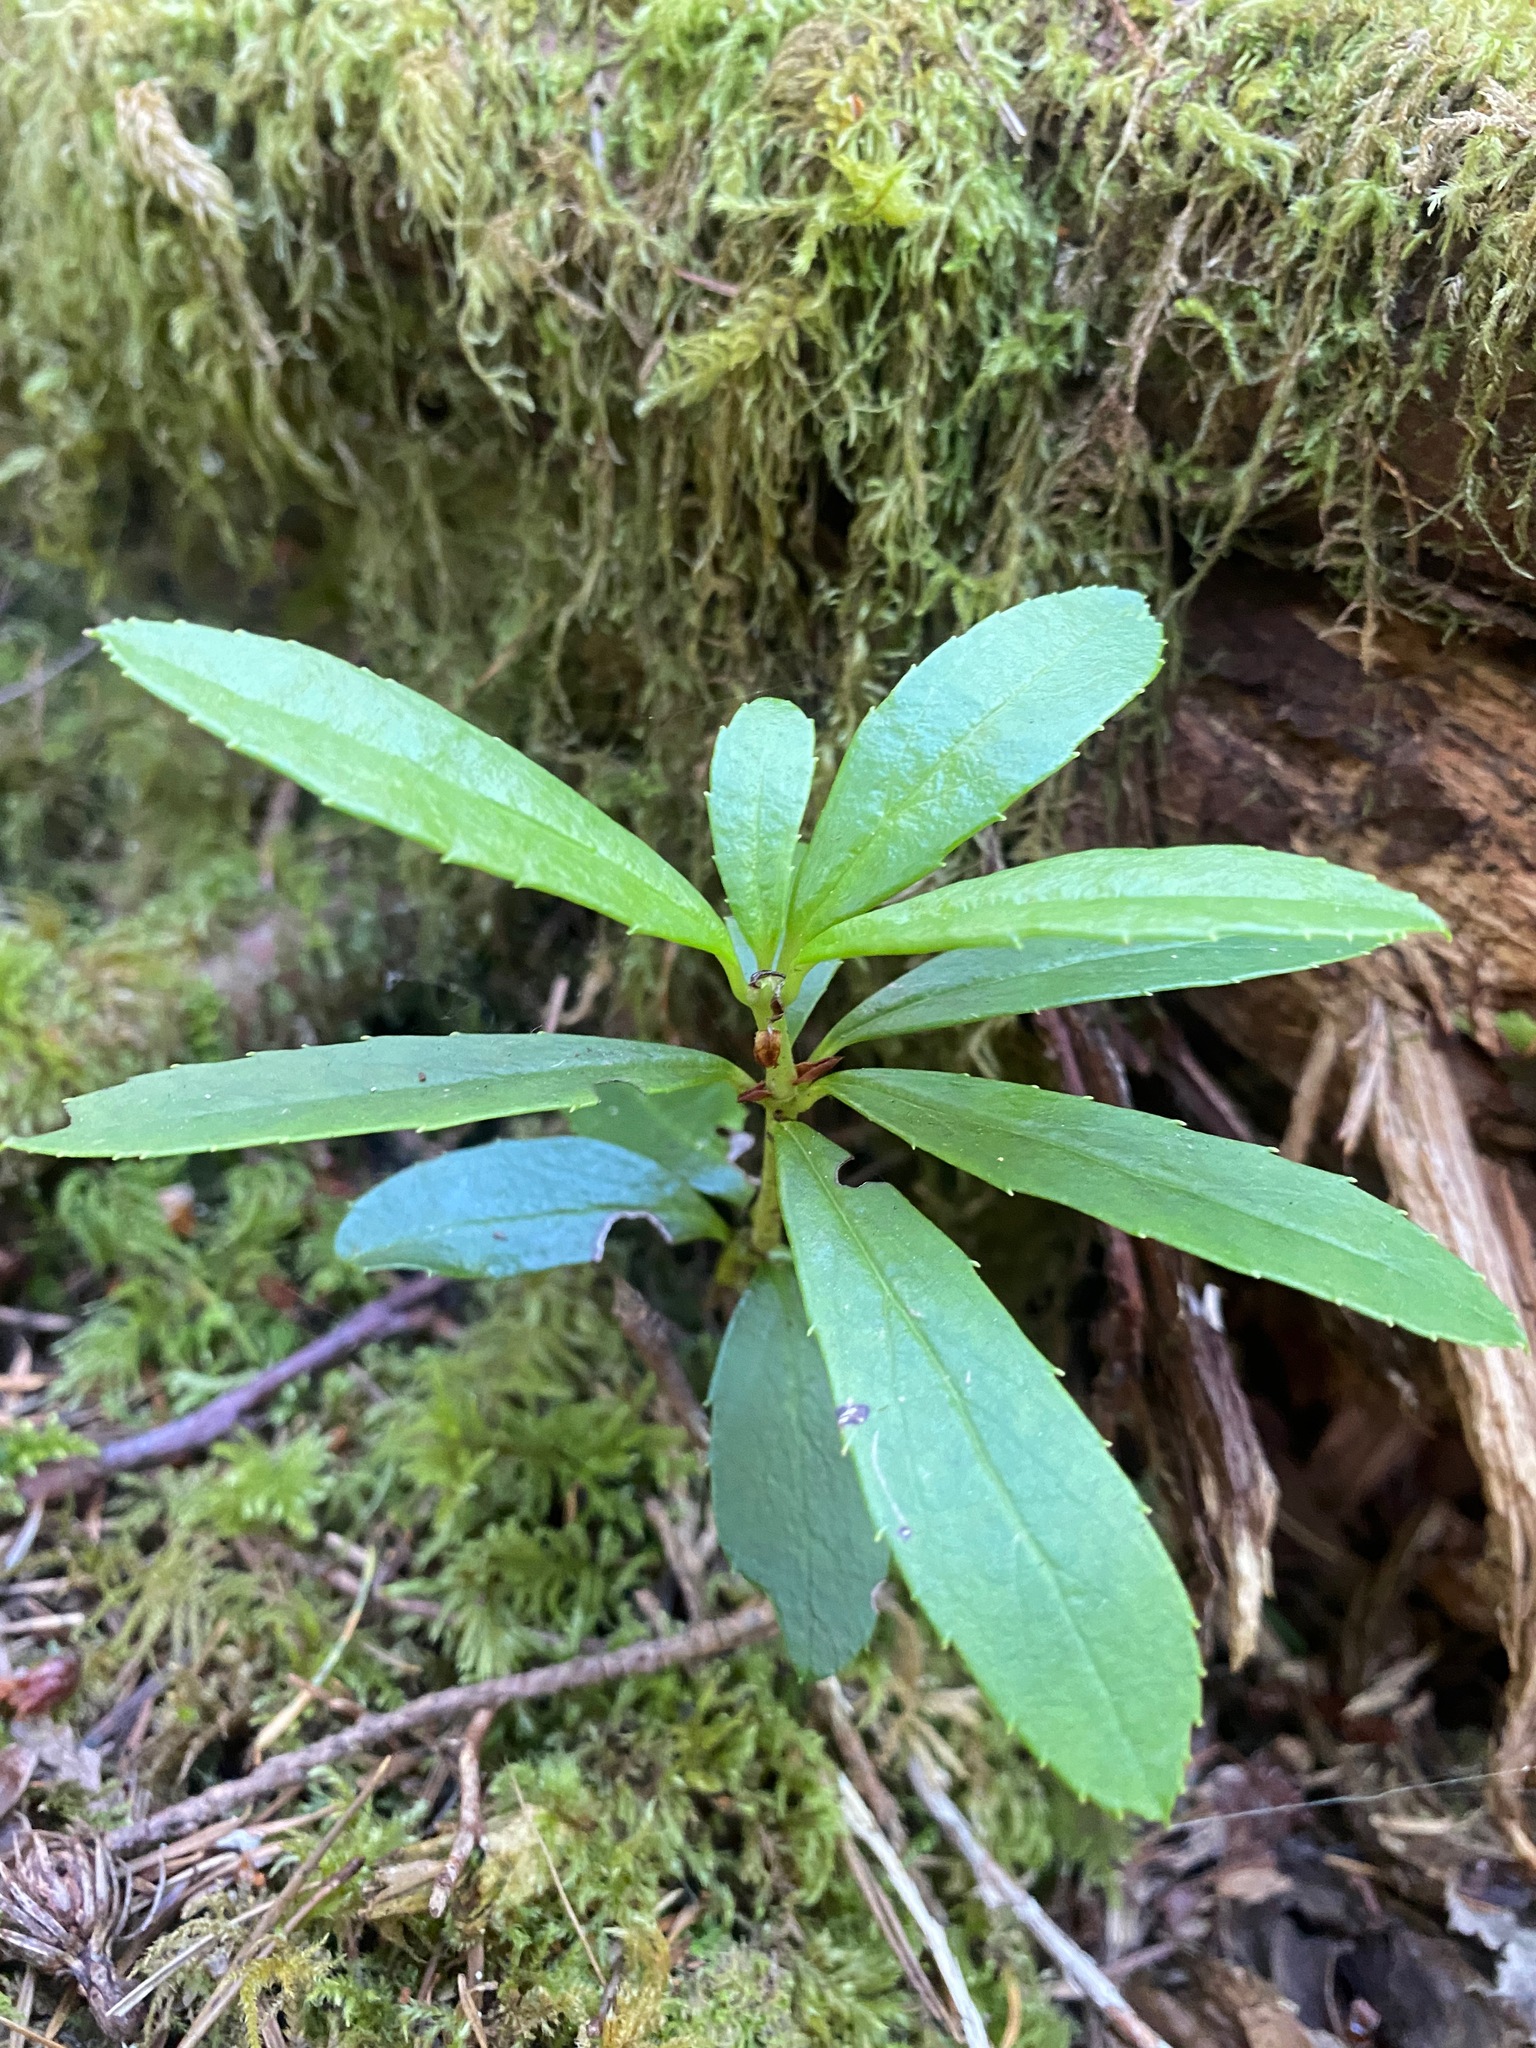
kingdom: Plantae
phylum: Tracheophyta
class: Magnoliopsida
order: Ericales
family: Ericaceae
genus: Chimaphila
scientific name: Chimaphila umbellata
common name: Pipsissewa
